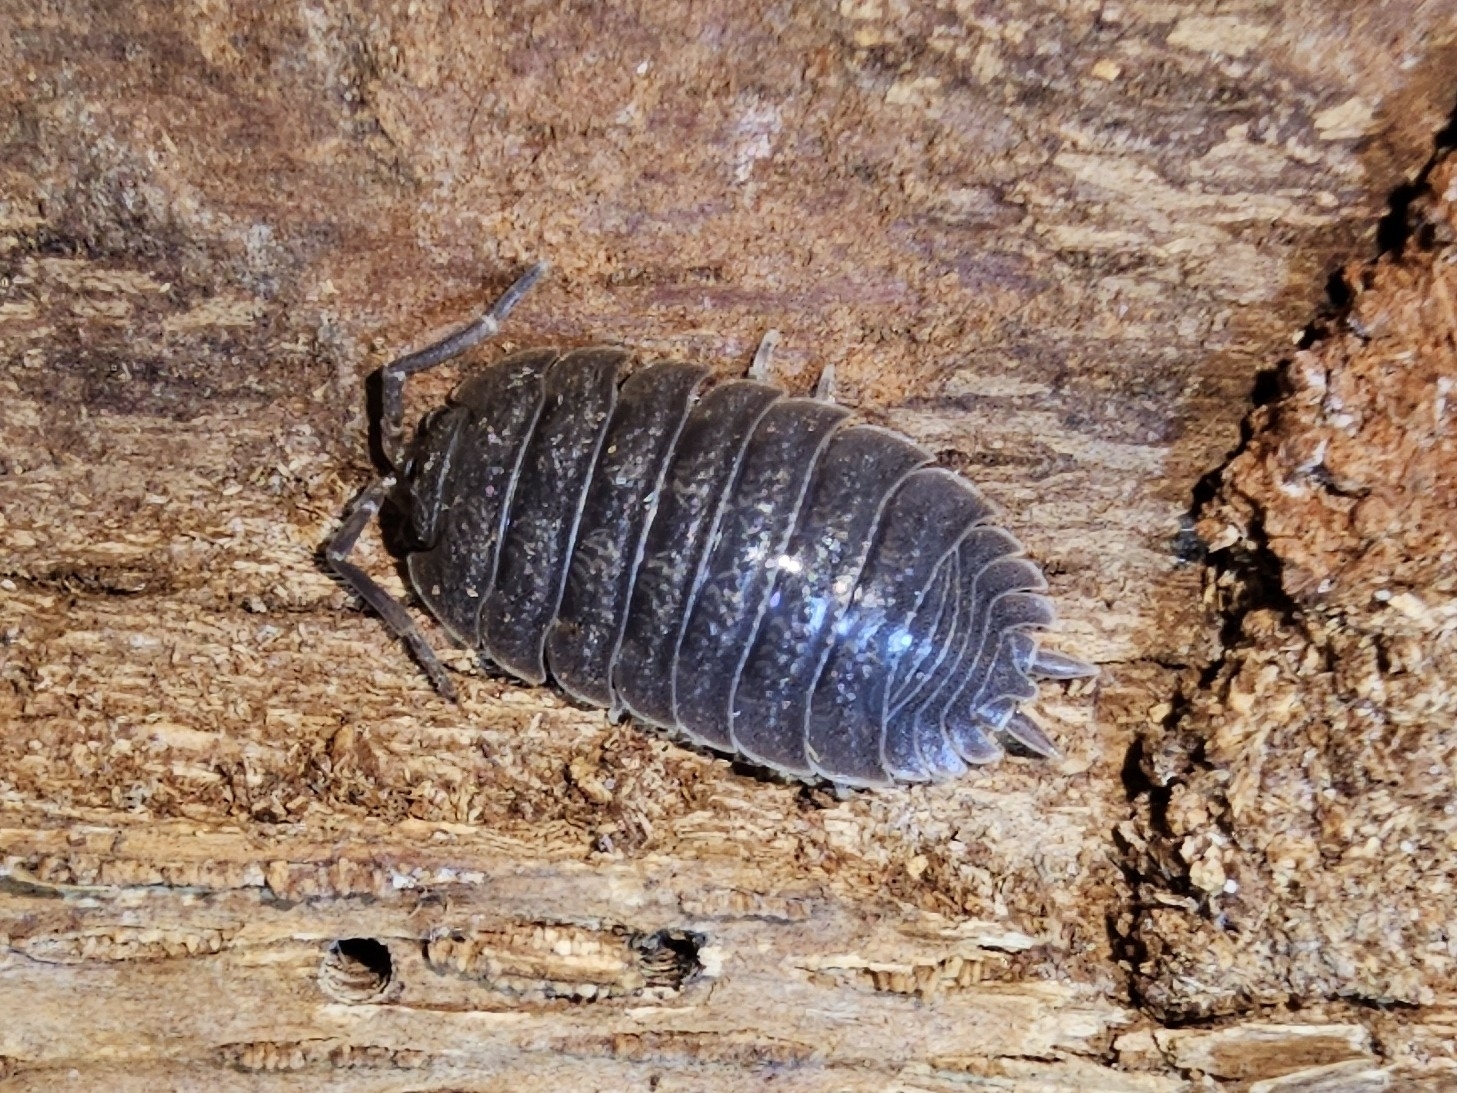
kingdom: Animalia
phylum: Arthropoda
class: Malacostraca
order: Isopoda
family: Porcellionidae
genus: Porcellio
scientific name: Porcellio dilatatus
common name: Isopod
